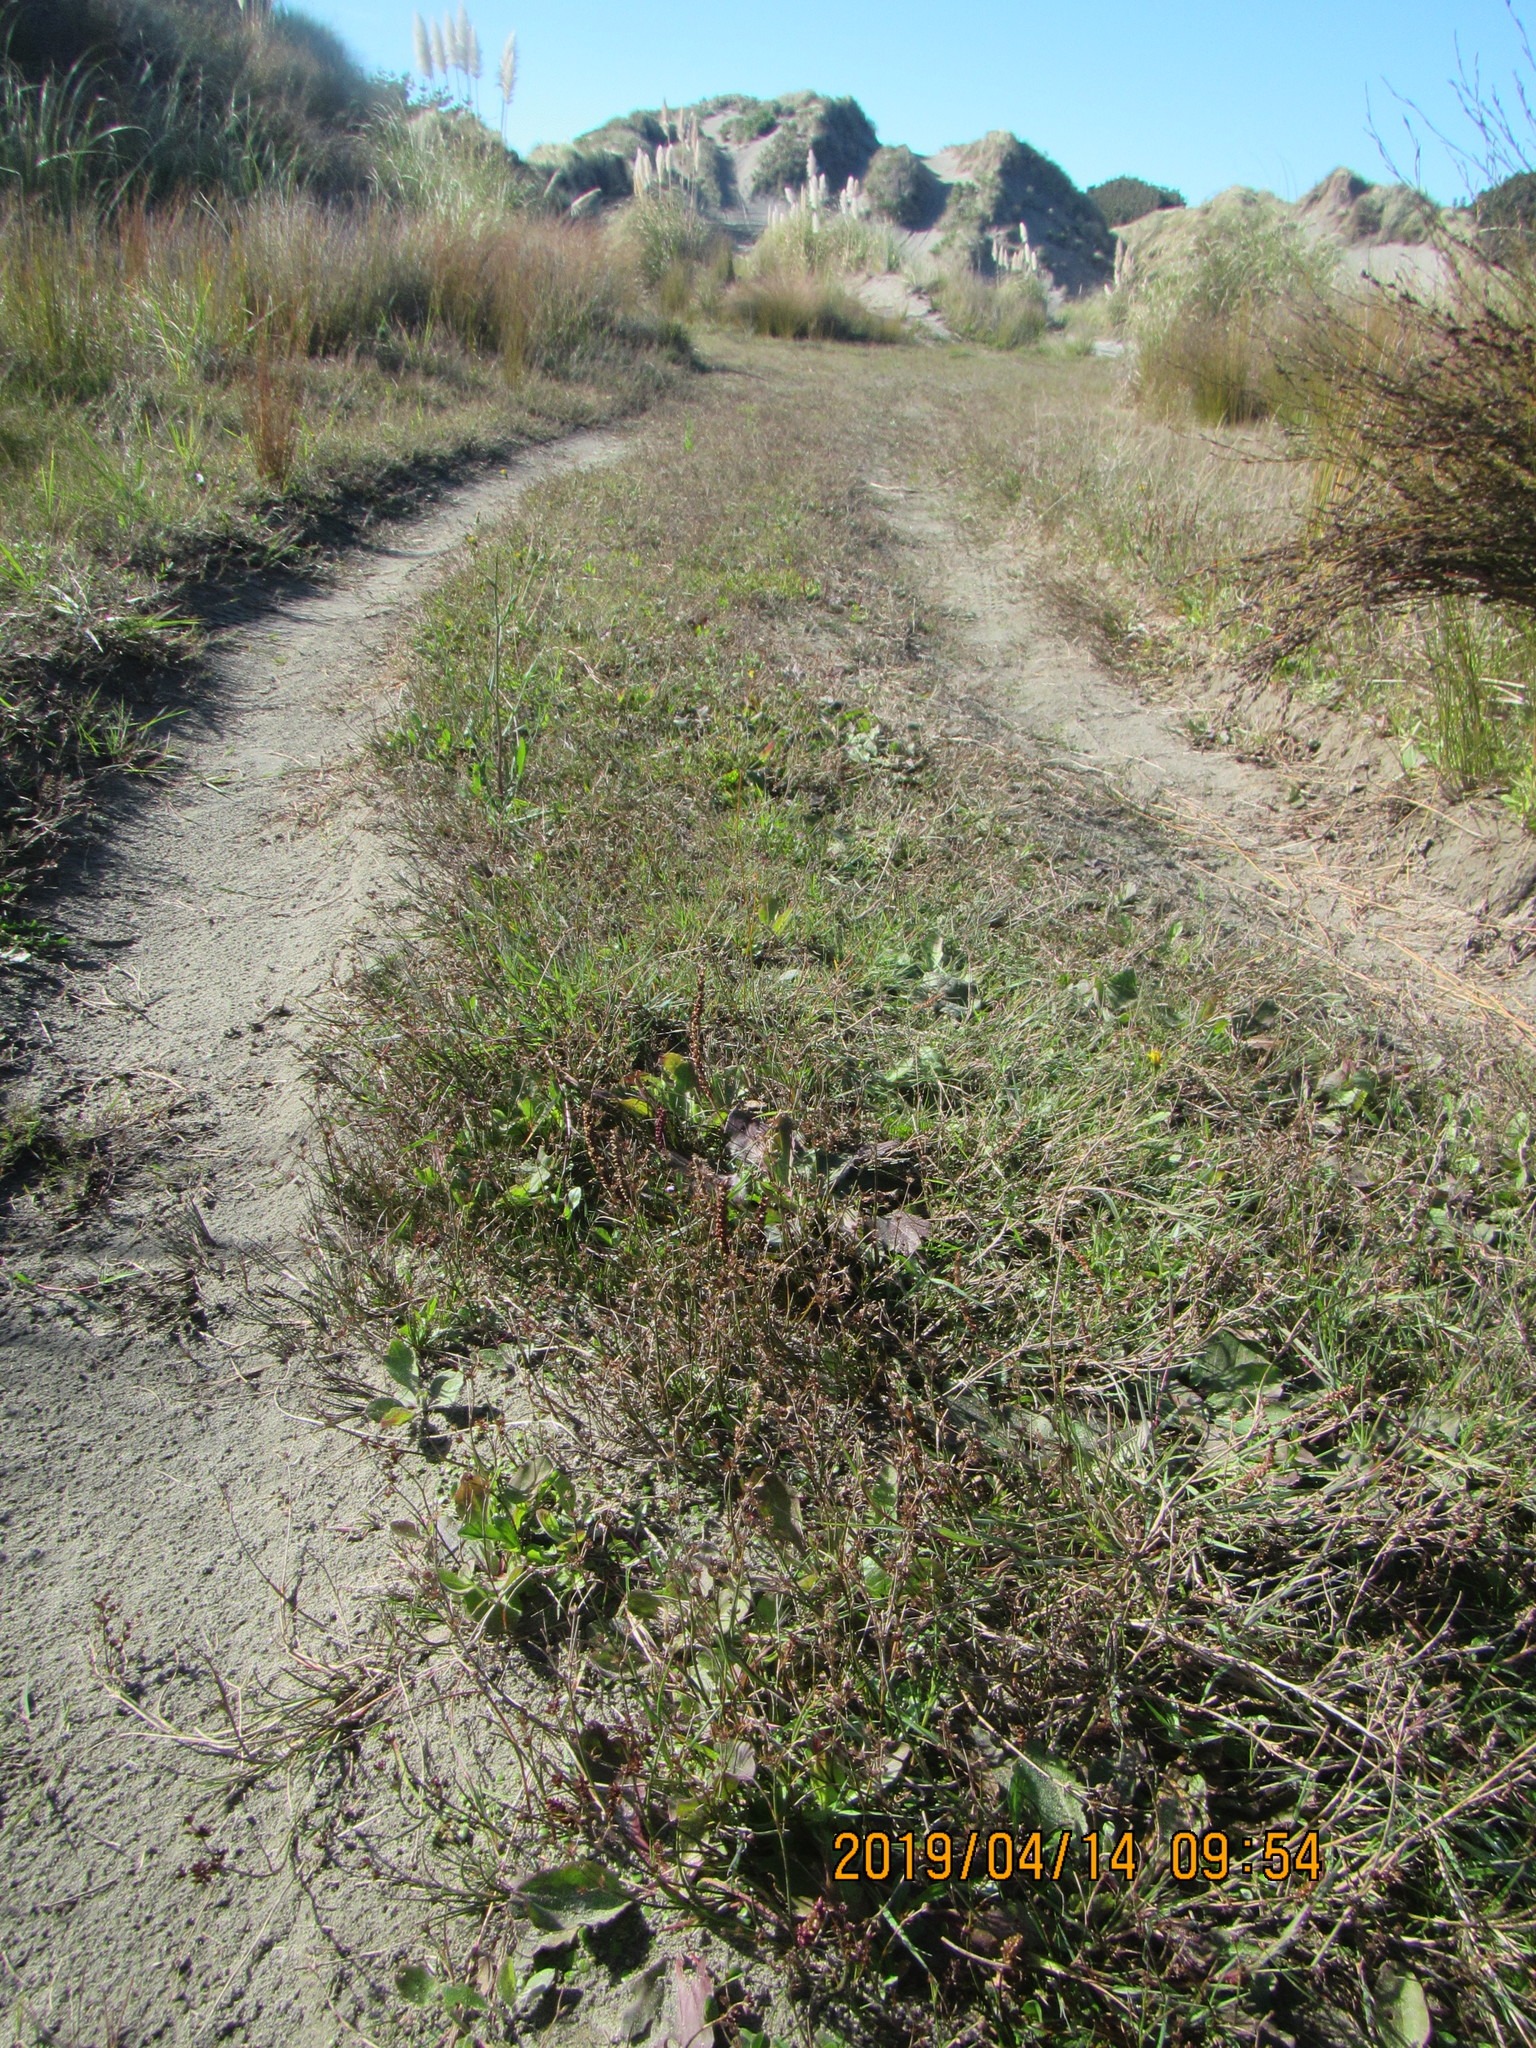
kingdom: Plantae
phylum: Tracheophyta
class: Liliopsida
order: Poales
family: Juncaceae
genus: Juncus
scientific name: Juncus articulatus
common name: Jointed rush
